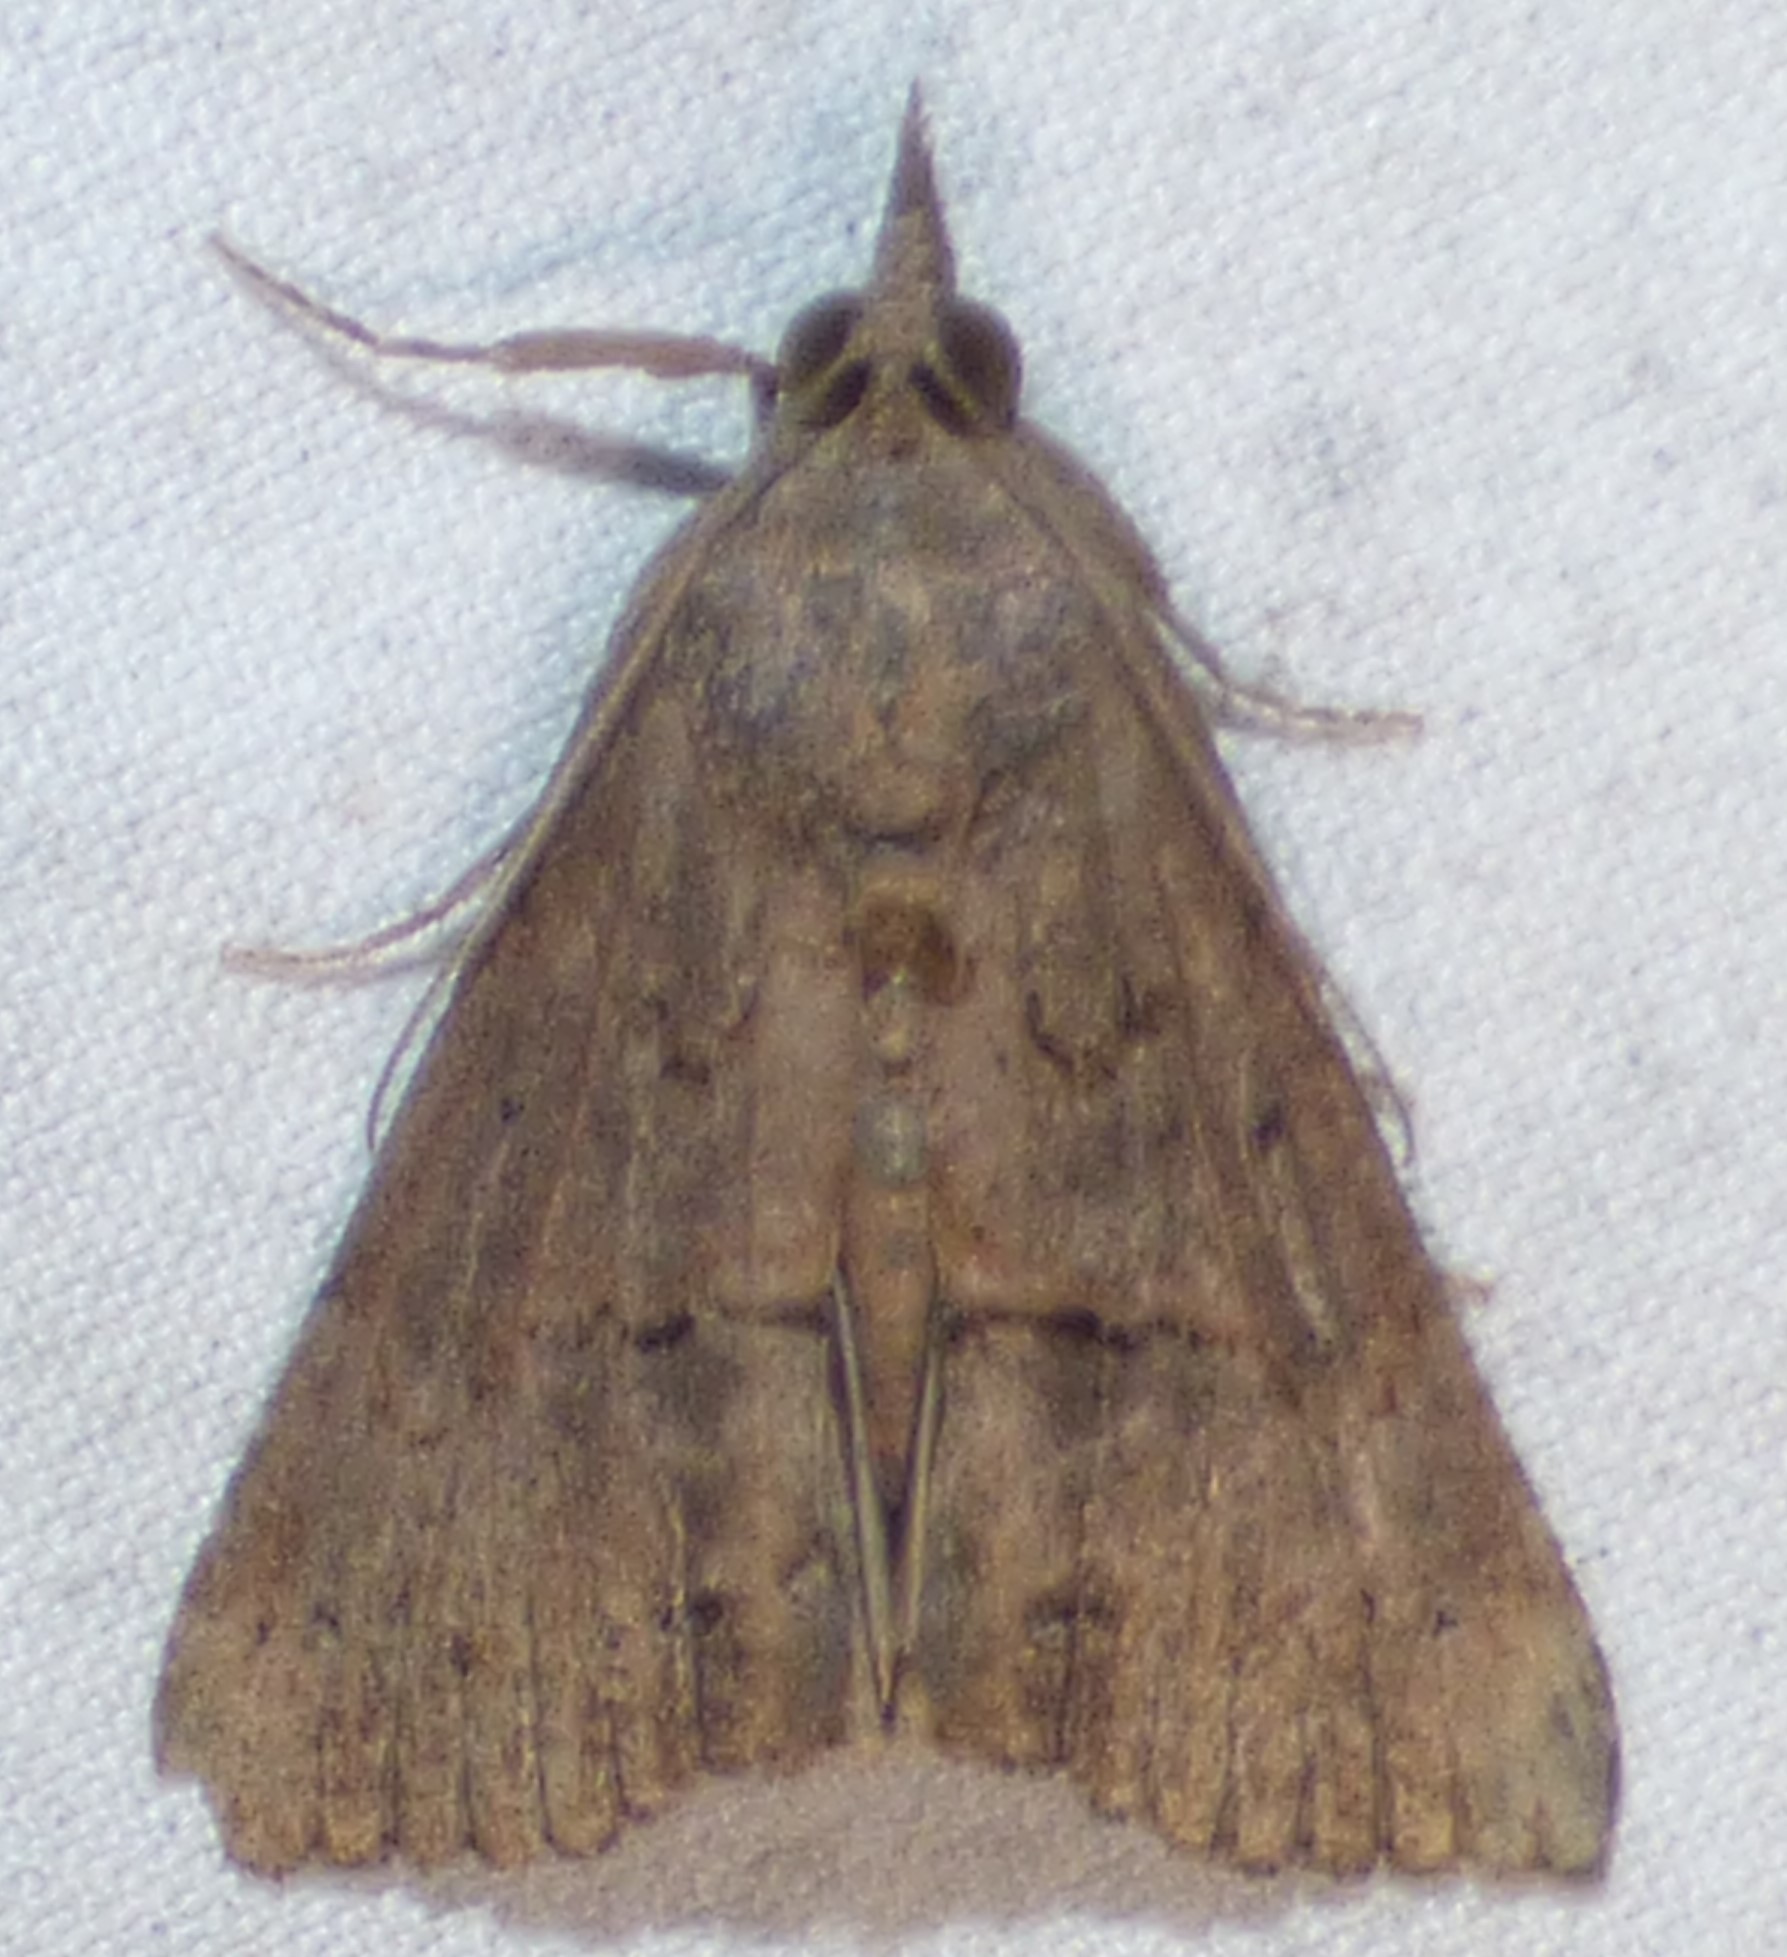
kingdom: Animalia
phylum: Arthropoda
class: Insecta
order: Lepidoptera
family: Erebidae
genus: Hypena
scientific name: Hypena scabra
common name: Green cloverworm
